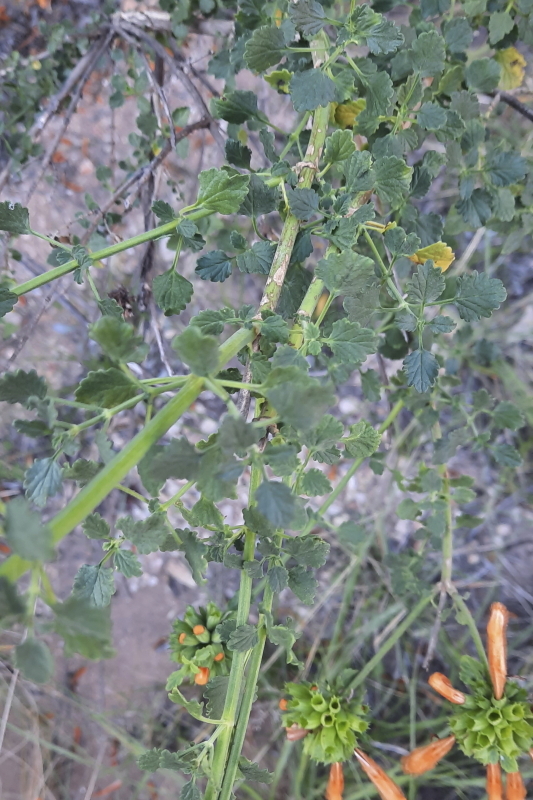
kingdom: Plantae
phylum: Tracheophyta
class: Magnoliopsida
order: Lamiales
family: Lamiaceae
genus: Leonotis
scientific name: Leonotis ocymifolia
